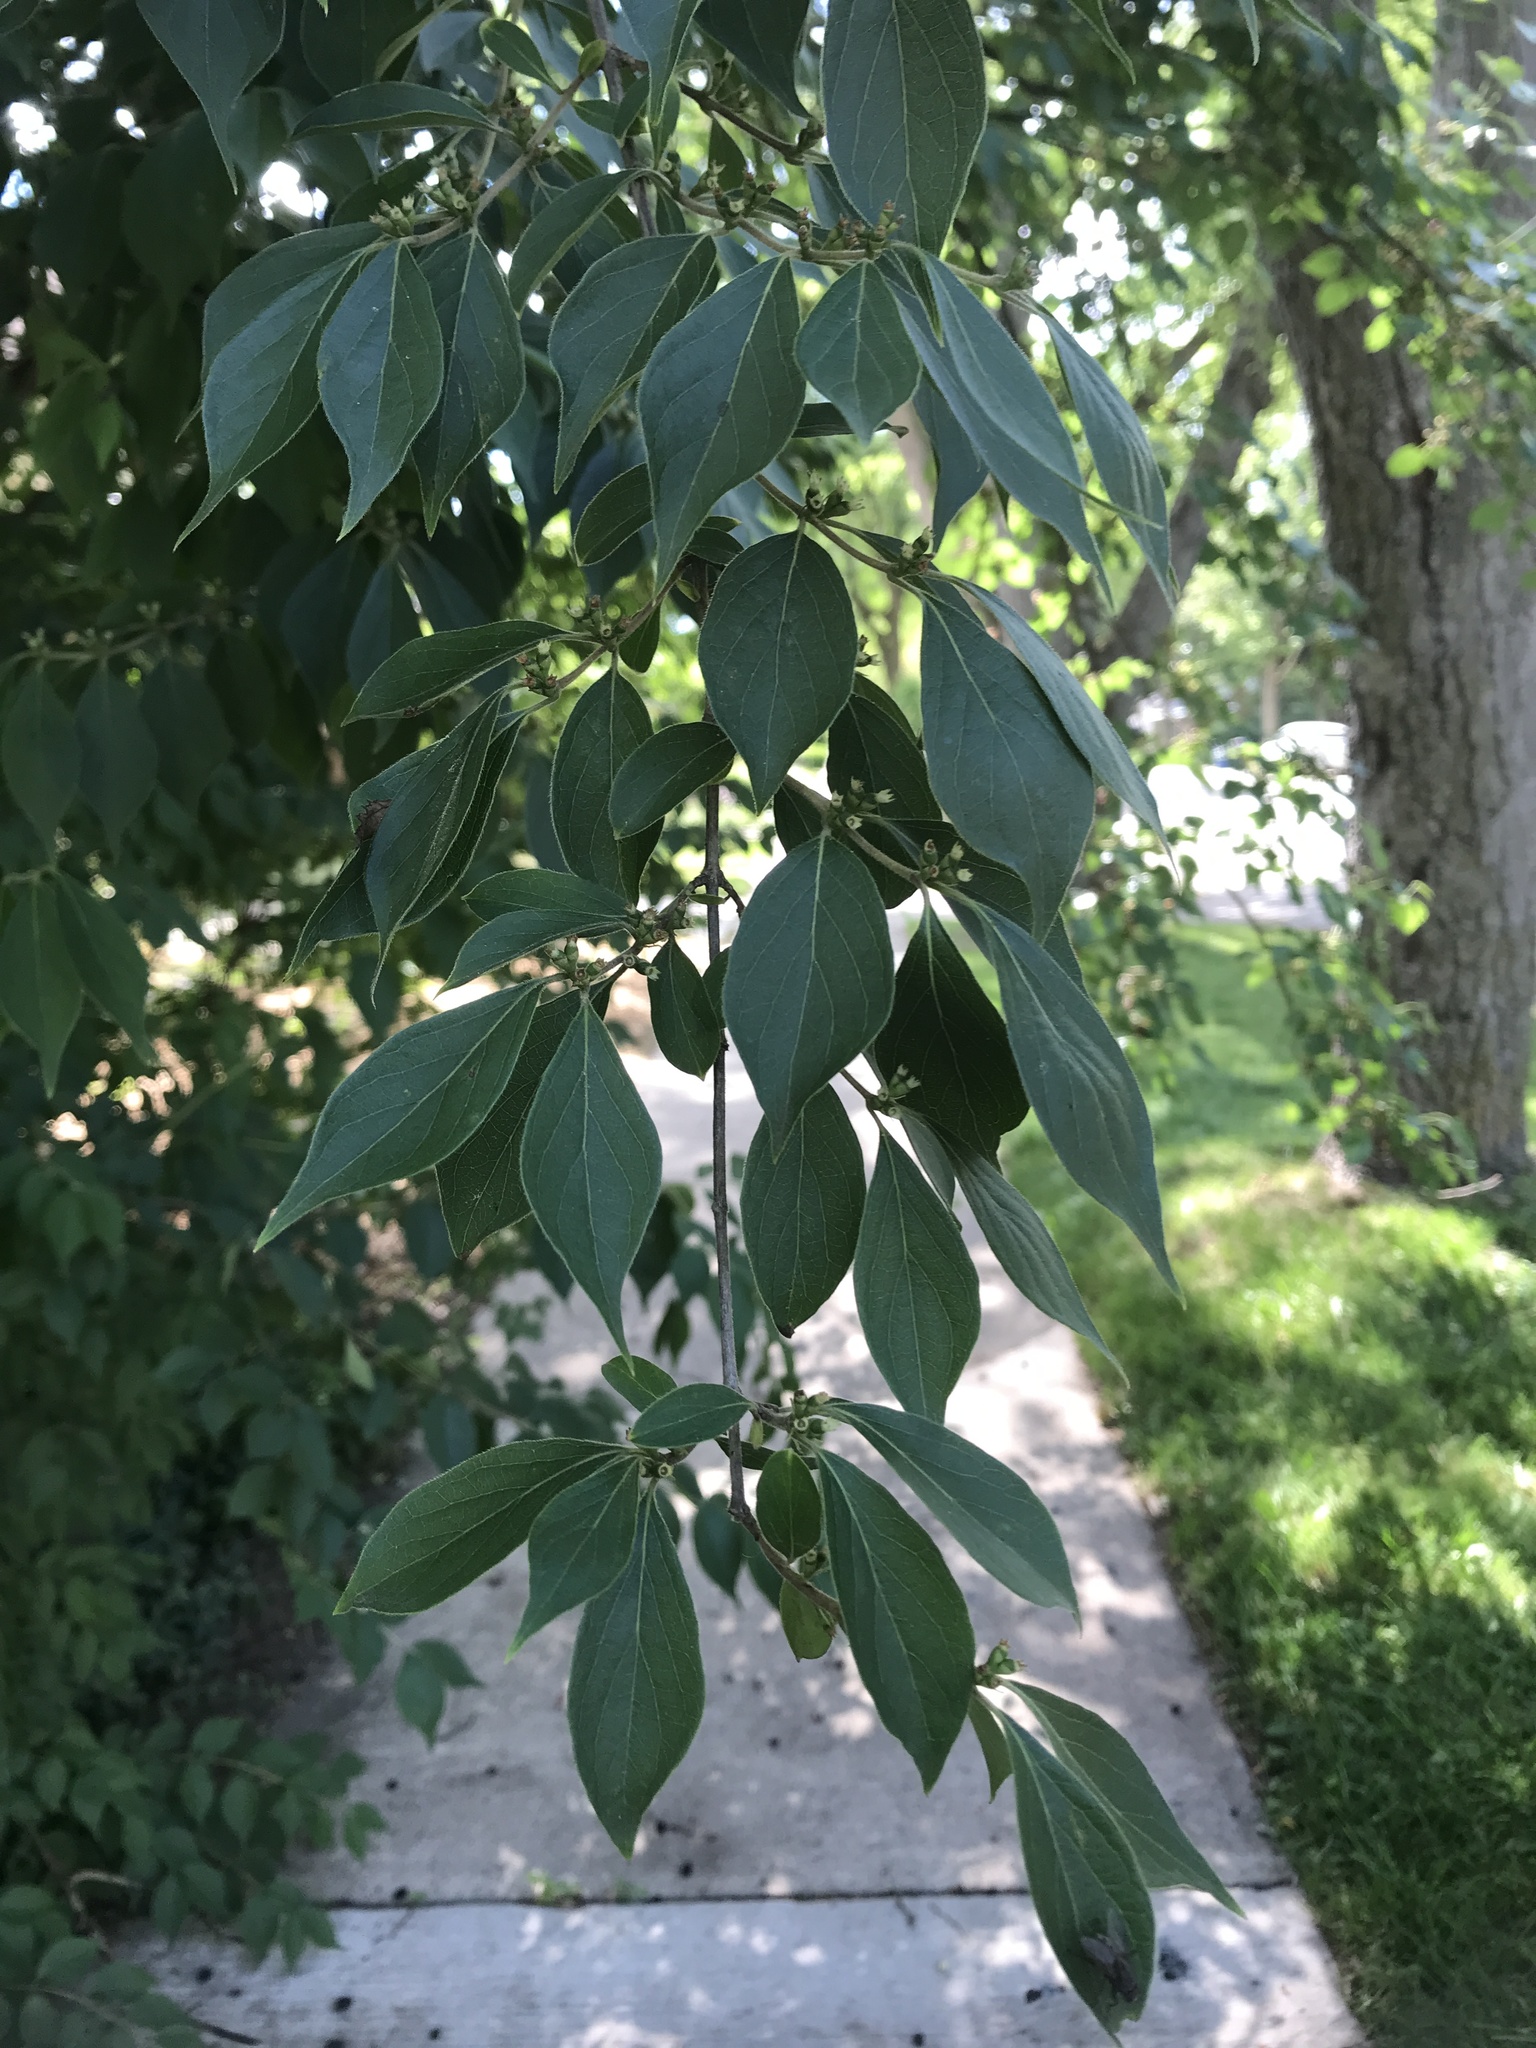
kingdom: Plantae
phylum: Tracheophyta
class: Magnoliopsida
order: Dipsacales
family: Caprifoliaceae
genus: Lonicera
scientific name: Lonicera maackii
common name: Amur honeysuckle
